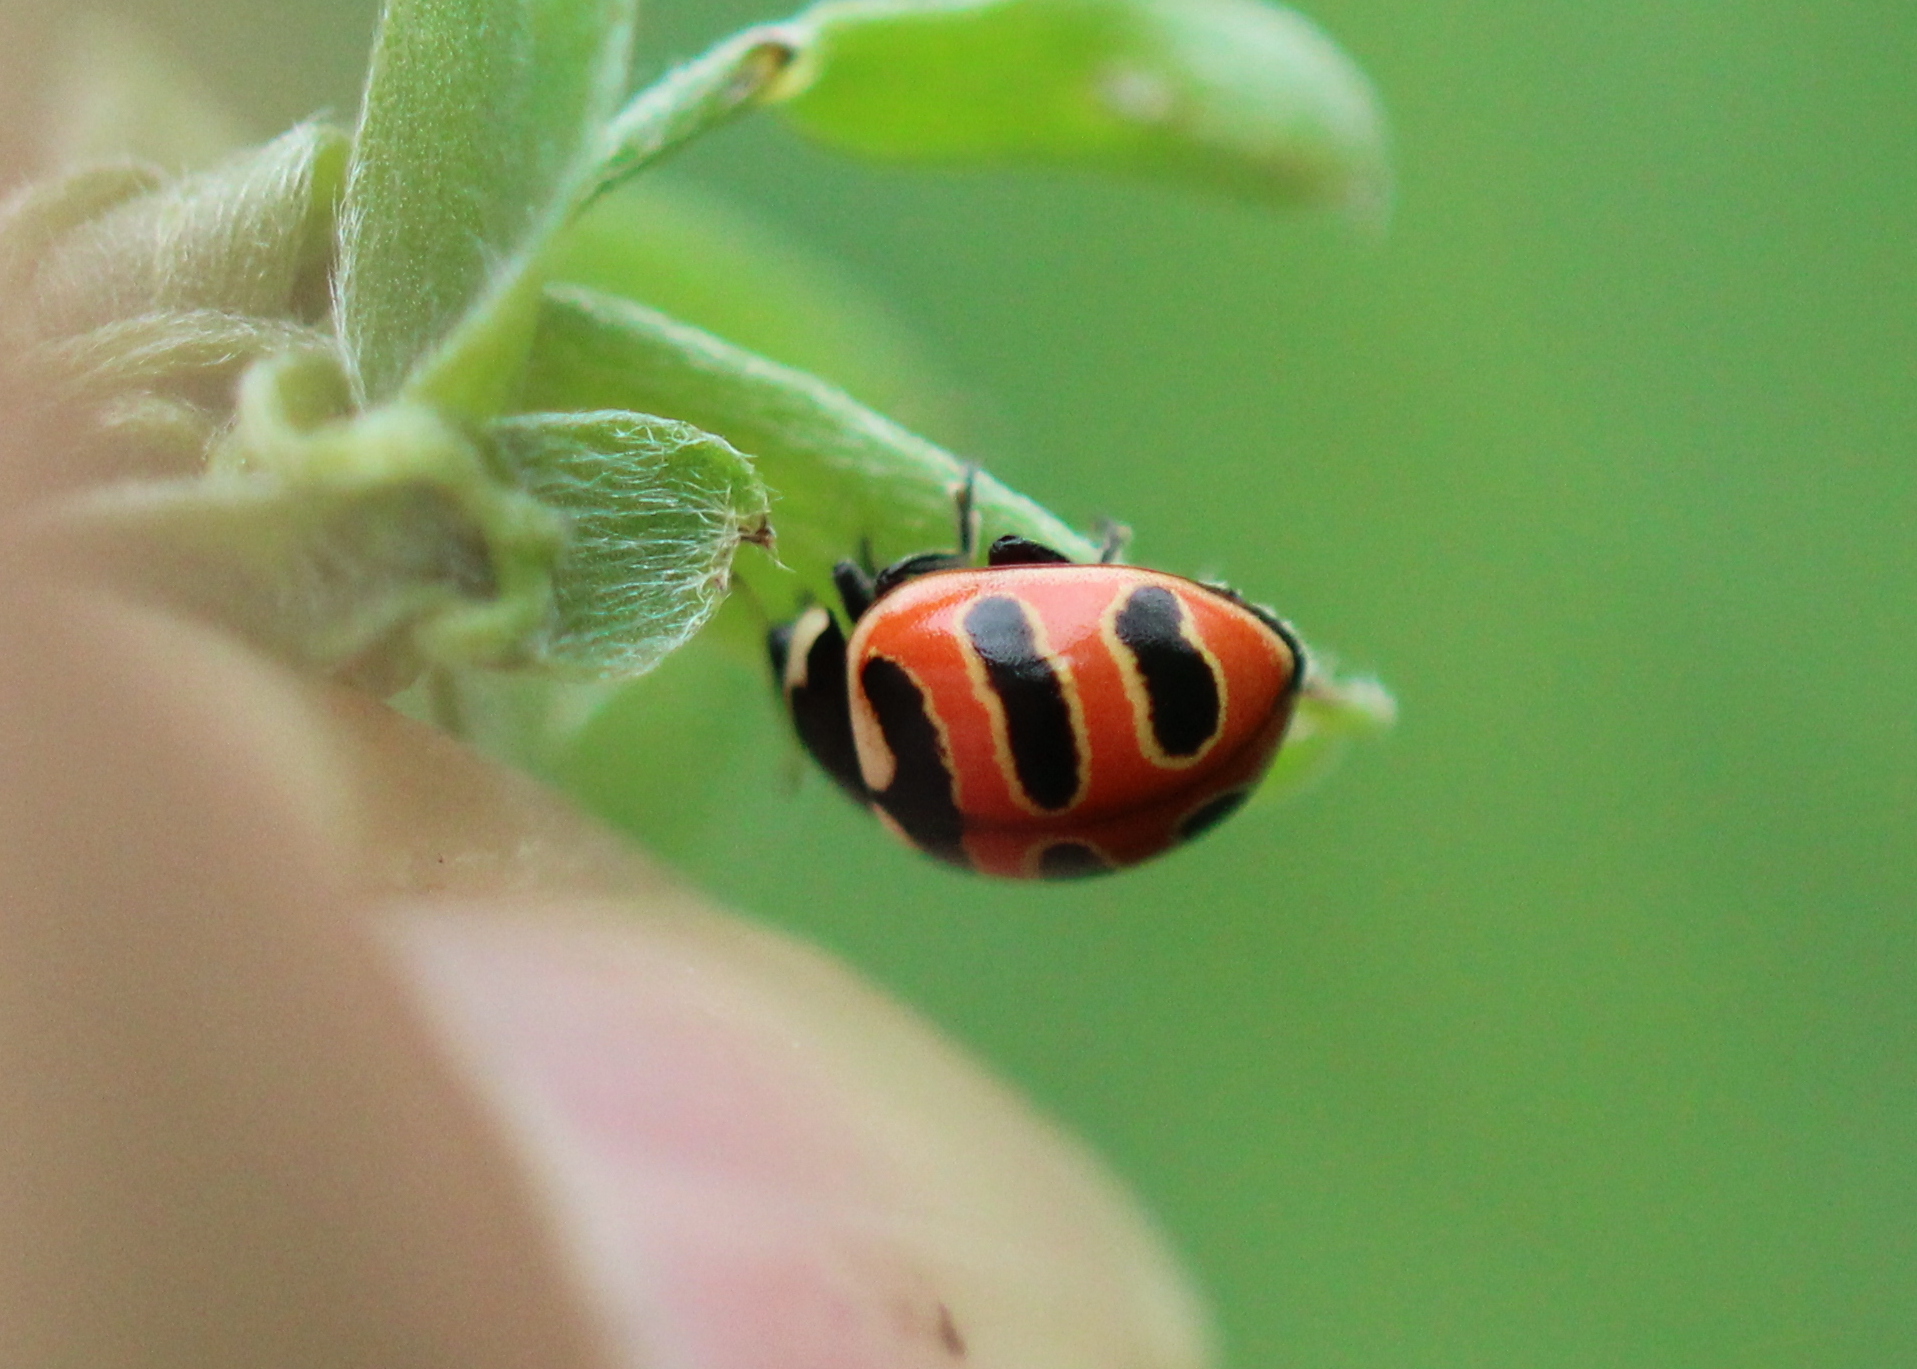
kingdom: Animalia
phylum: Arthropoda
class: Insecta
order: Coleoptera
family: Coccinellidae
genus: Coccinella
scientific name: Coccinella trifasciata
